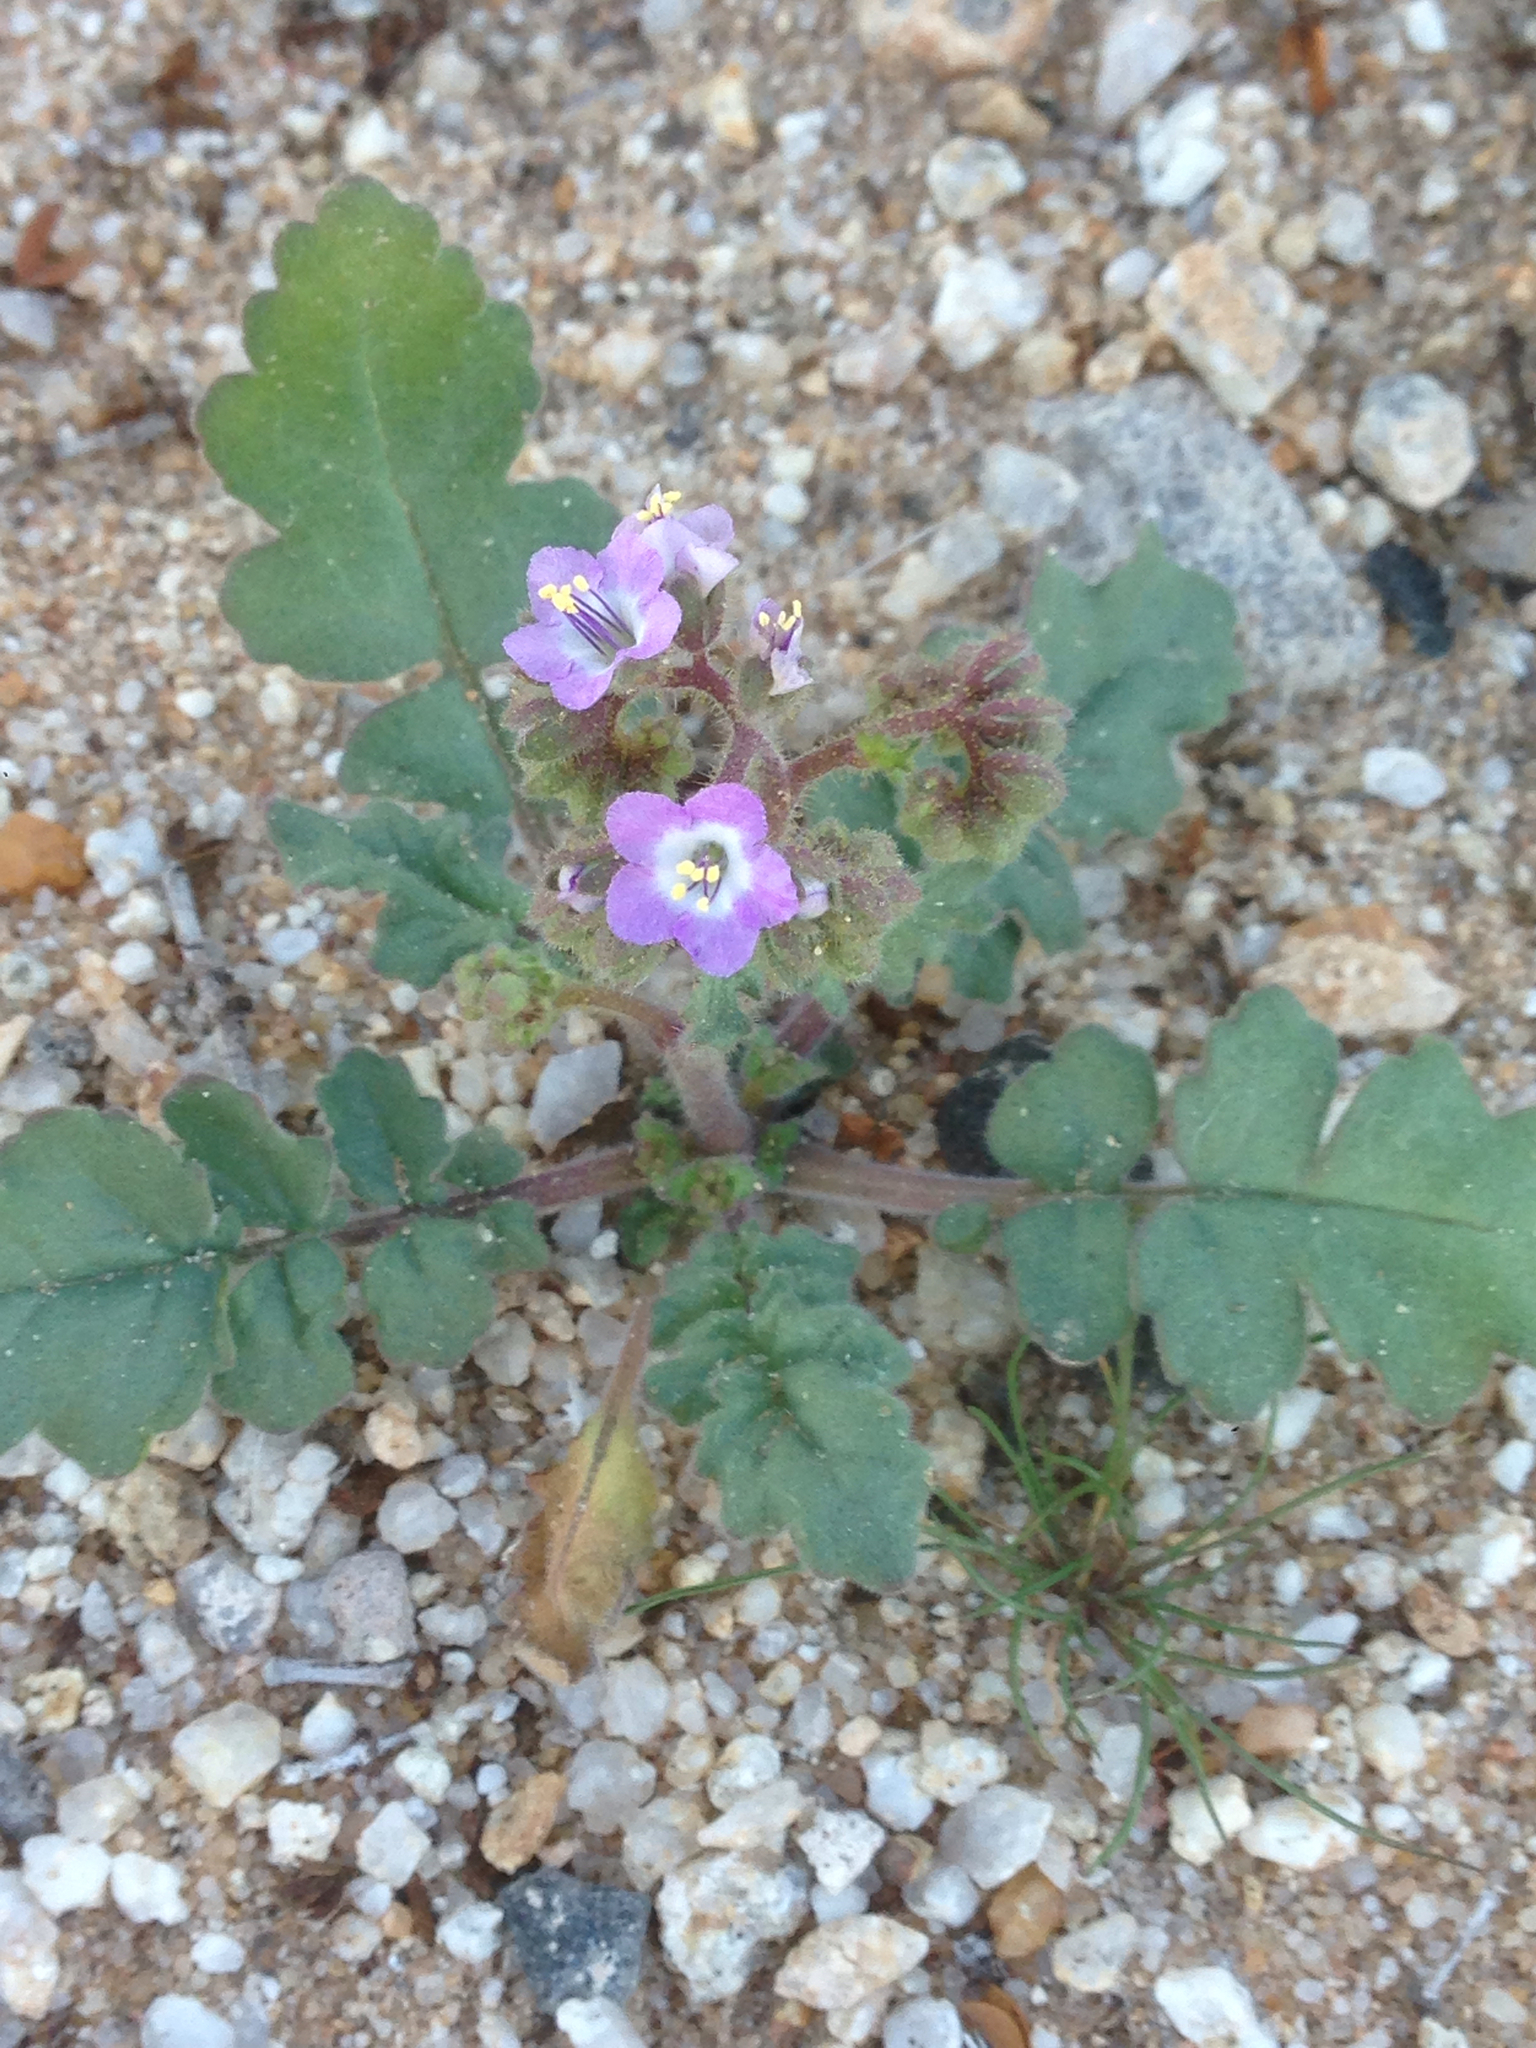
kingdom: Plantae
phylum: Tracheophyta
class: Magnoliopsida
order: Boraginales
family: Hydrophyllaceae
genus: Phacelia
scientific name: Phacelia crenulata
